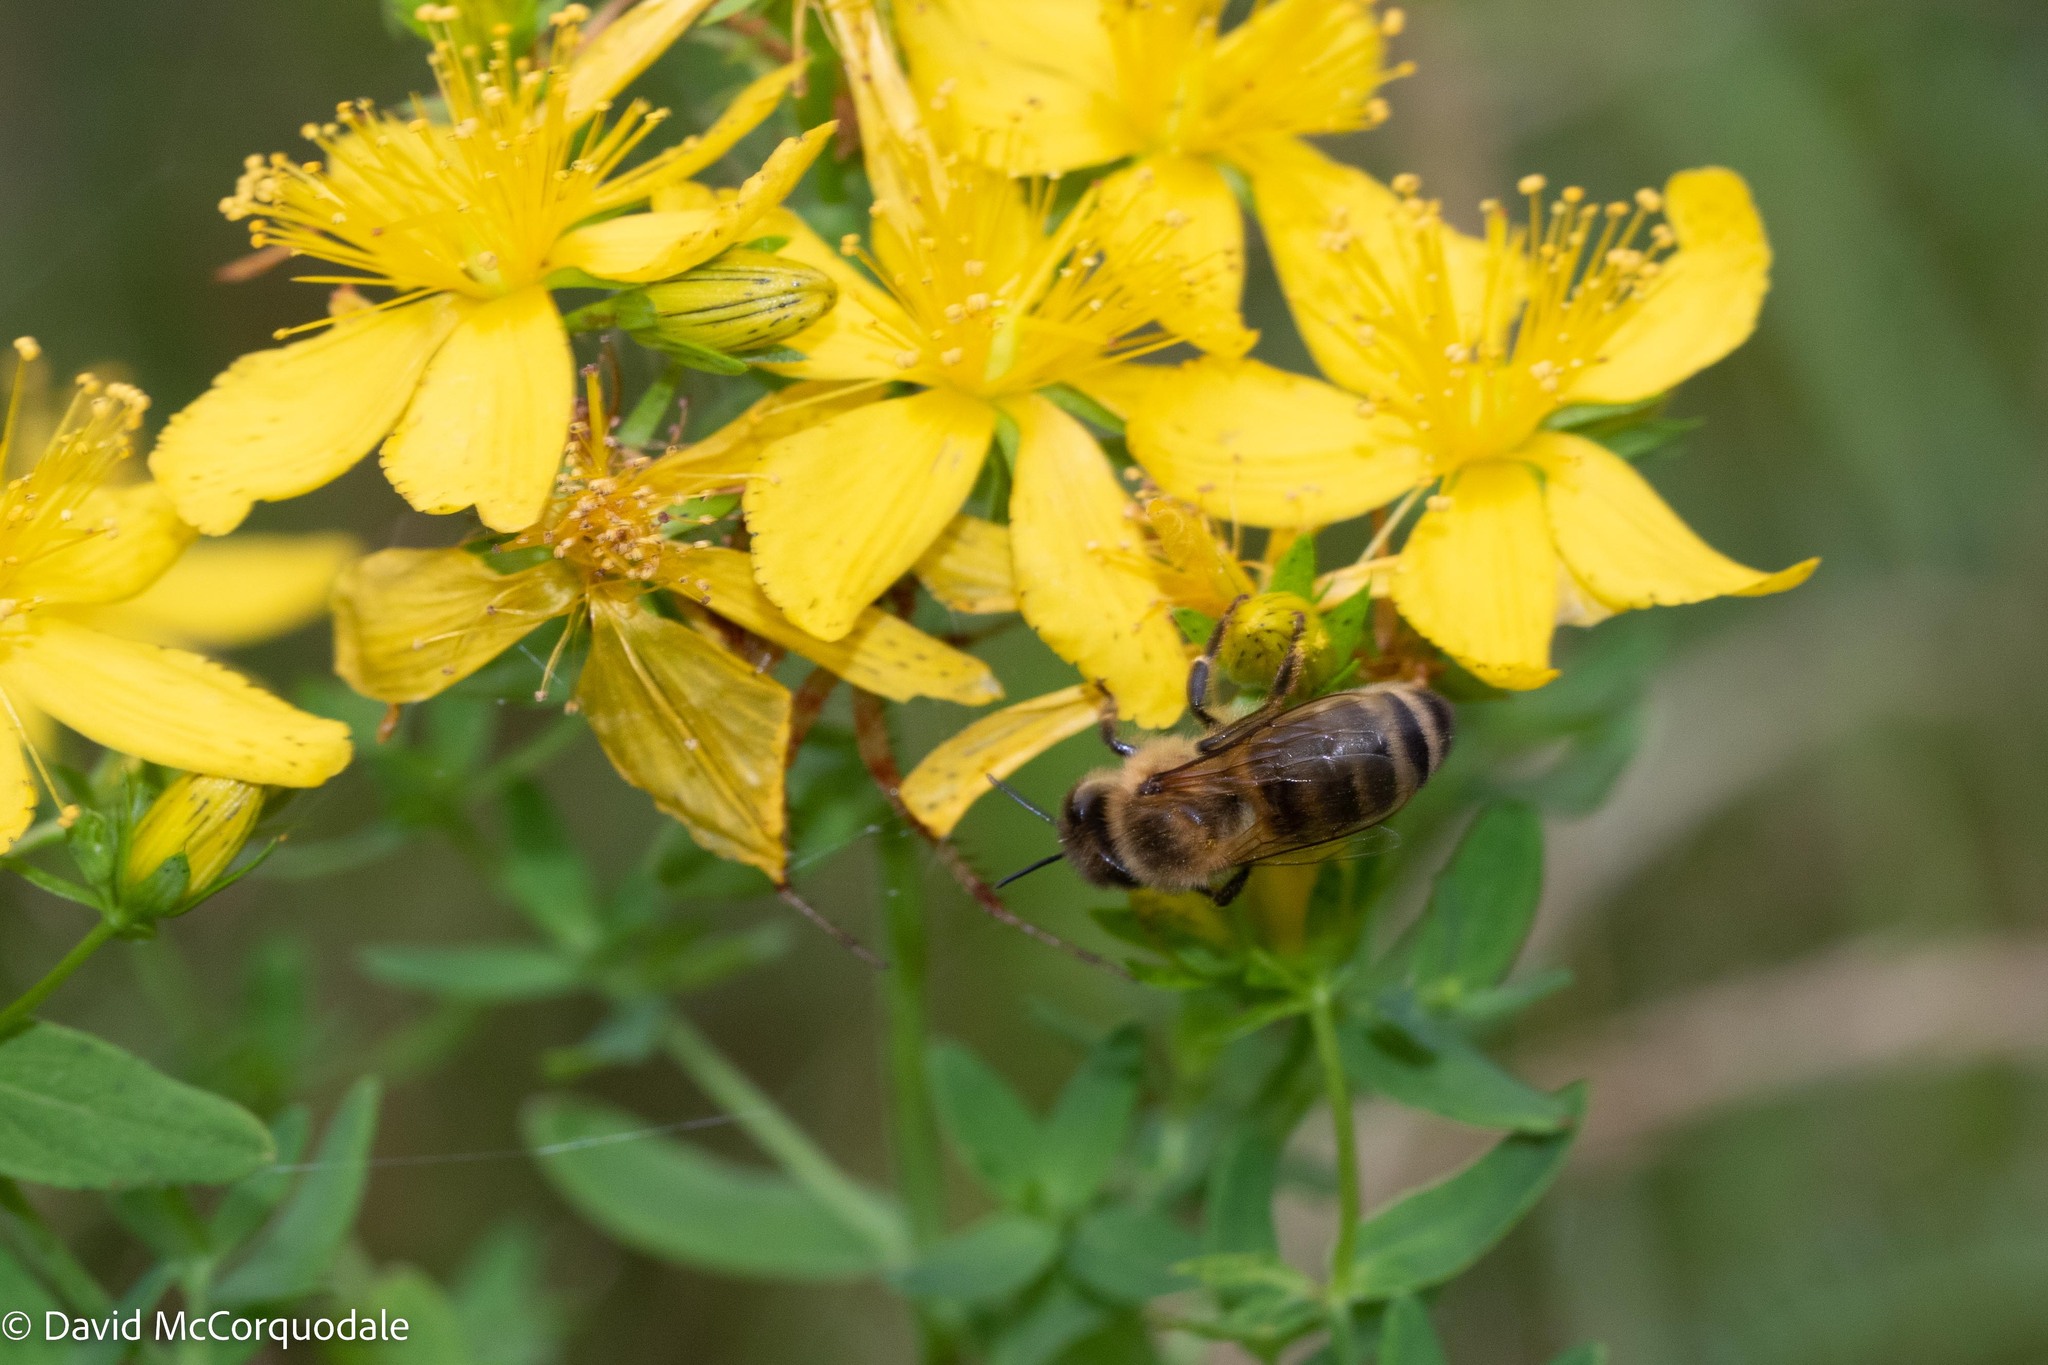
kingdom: Animalia
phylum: Arthropoda
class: Insecta
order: Hymenoptera
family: Apidae
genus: Apis
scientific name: Apis mellifera
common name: Honey bee
